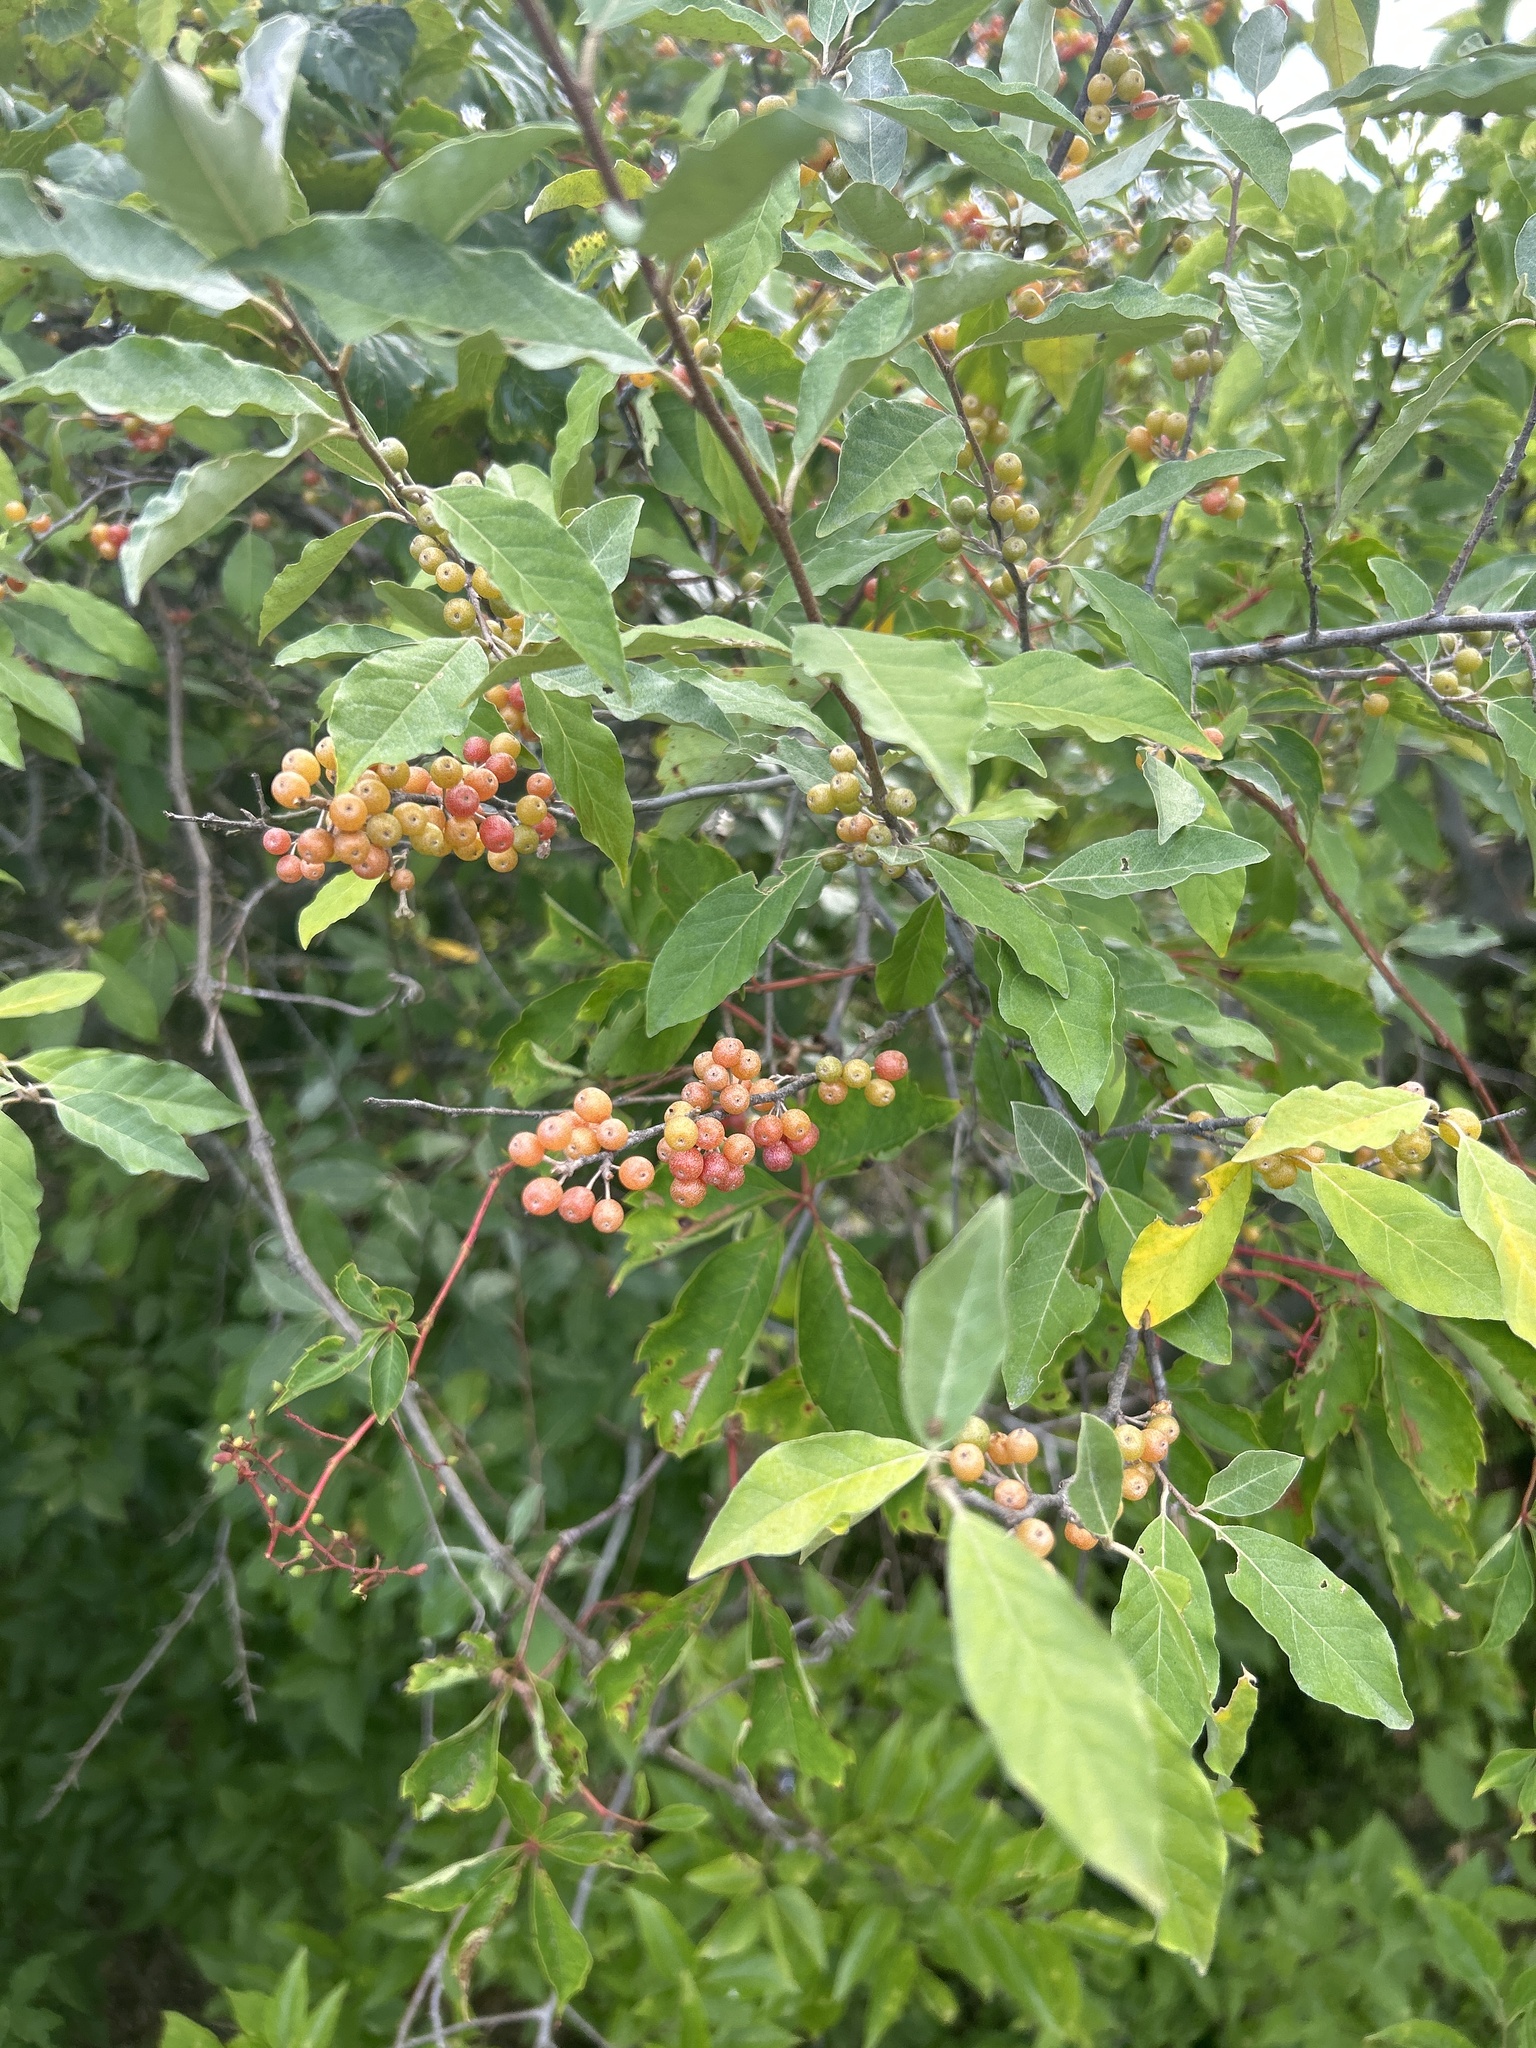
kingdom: Plantae
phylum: Tracheophyta
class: Magnoliopsida
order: Rosales
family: Elaeagnaceae
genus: Elaeagnus
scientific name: Elaeagnus umbellata
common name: Autumn olive
